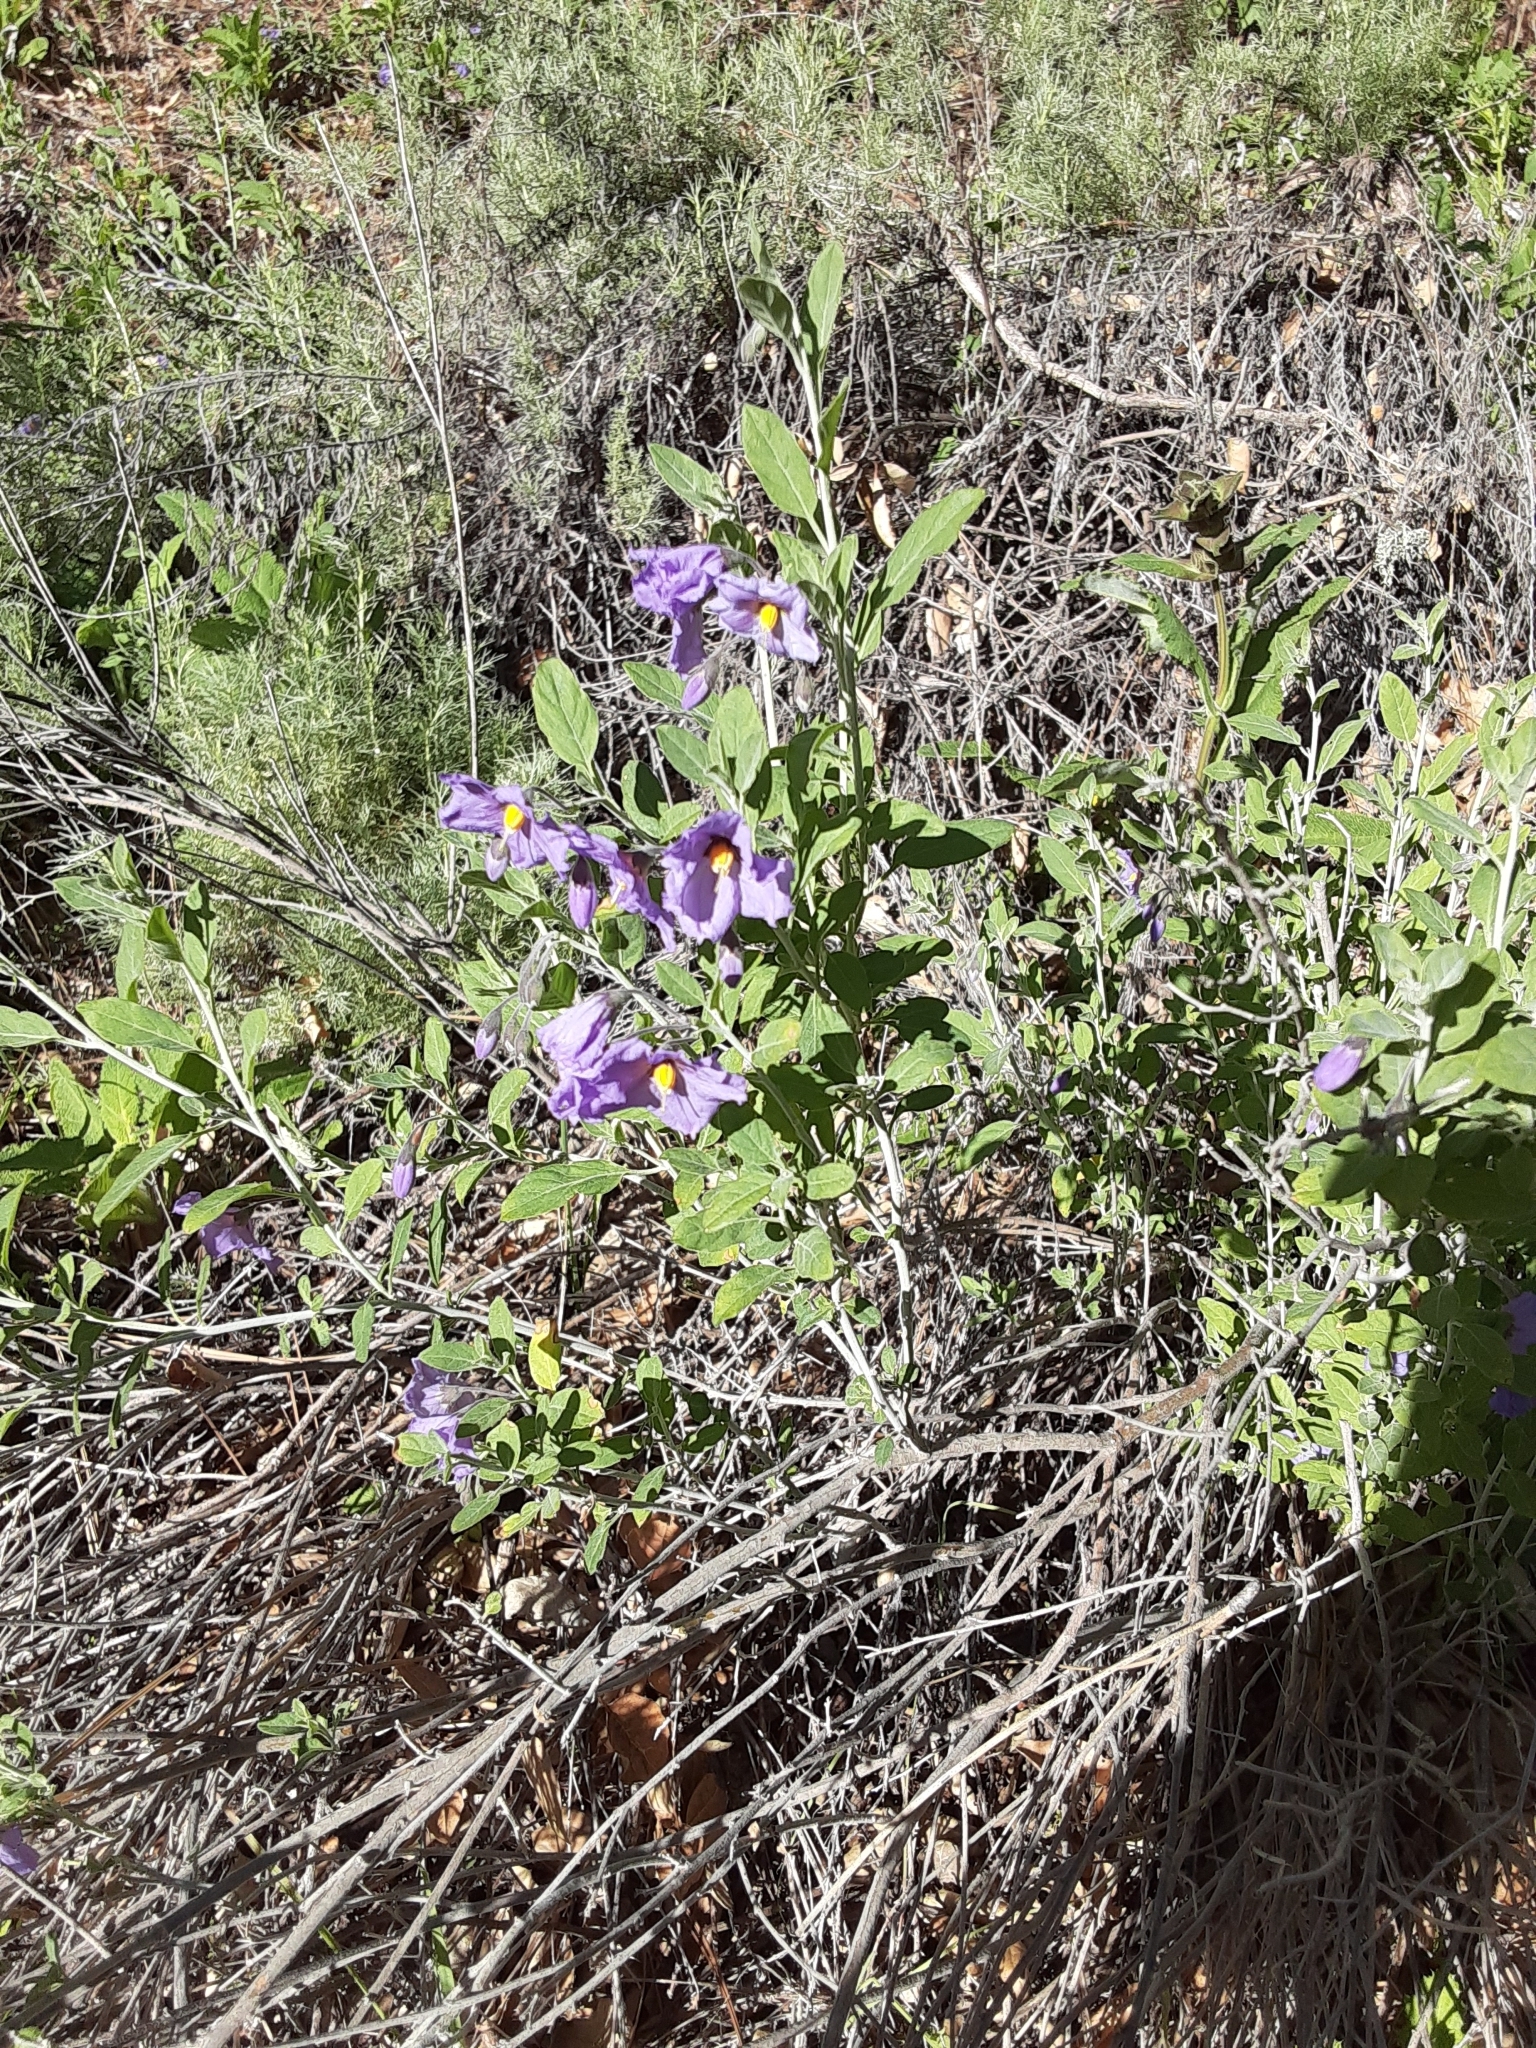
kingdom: Plantae
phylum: Tracheophyta
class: Magnoliopsida
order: Solanales
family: Solanaceae
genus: Solanum
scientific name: Solanum umbelliferum
